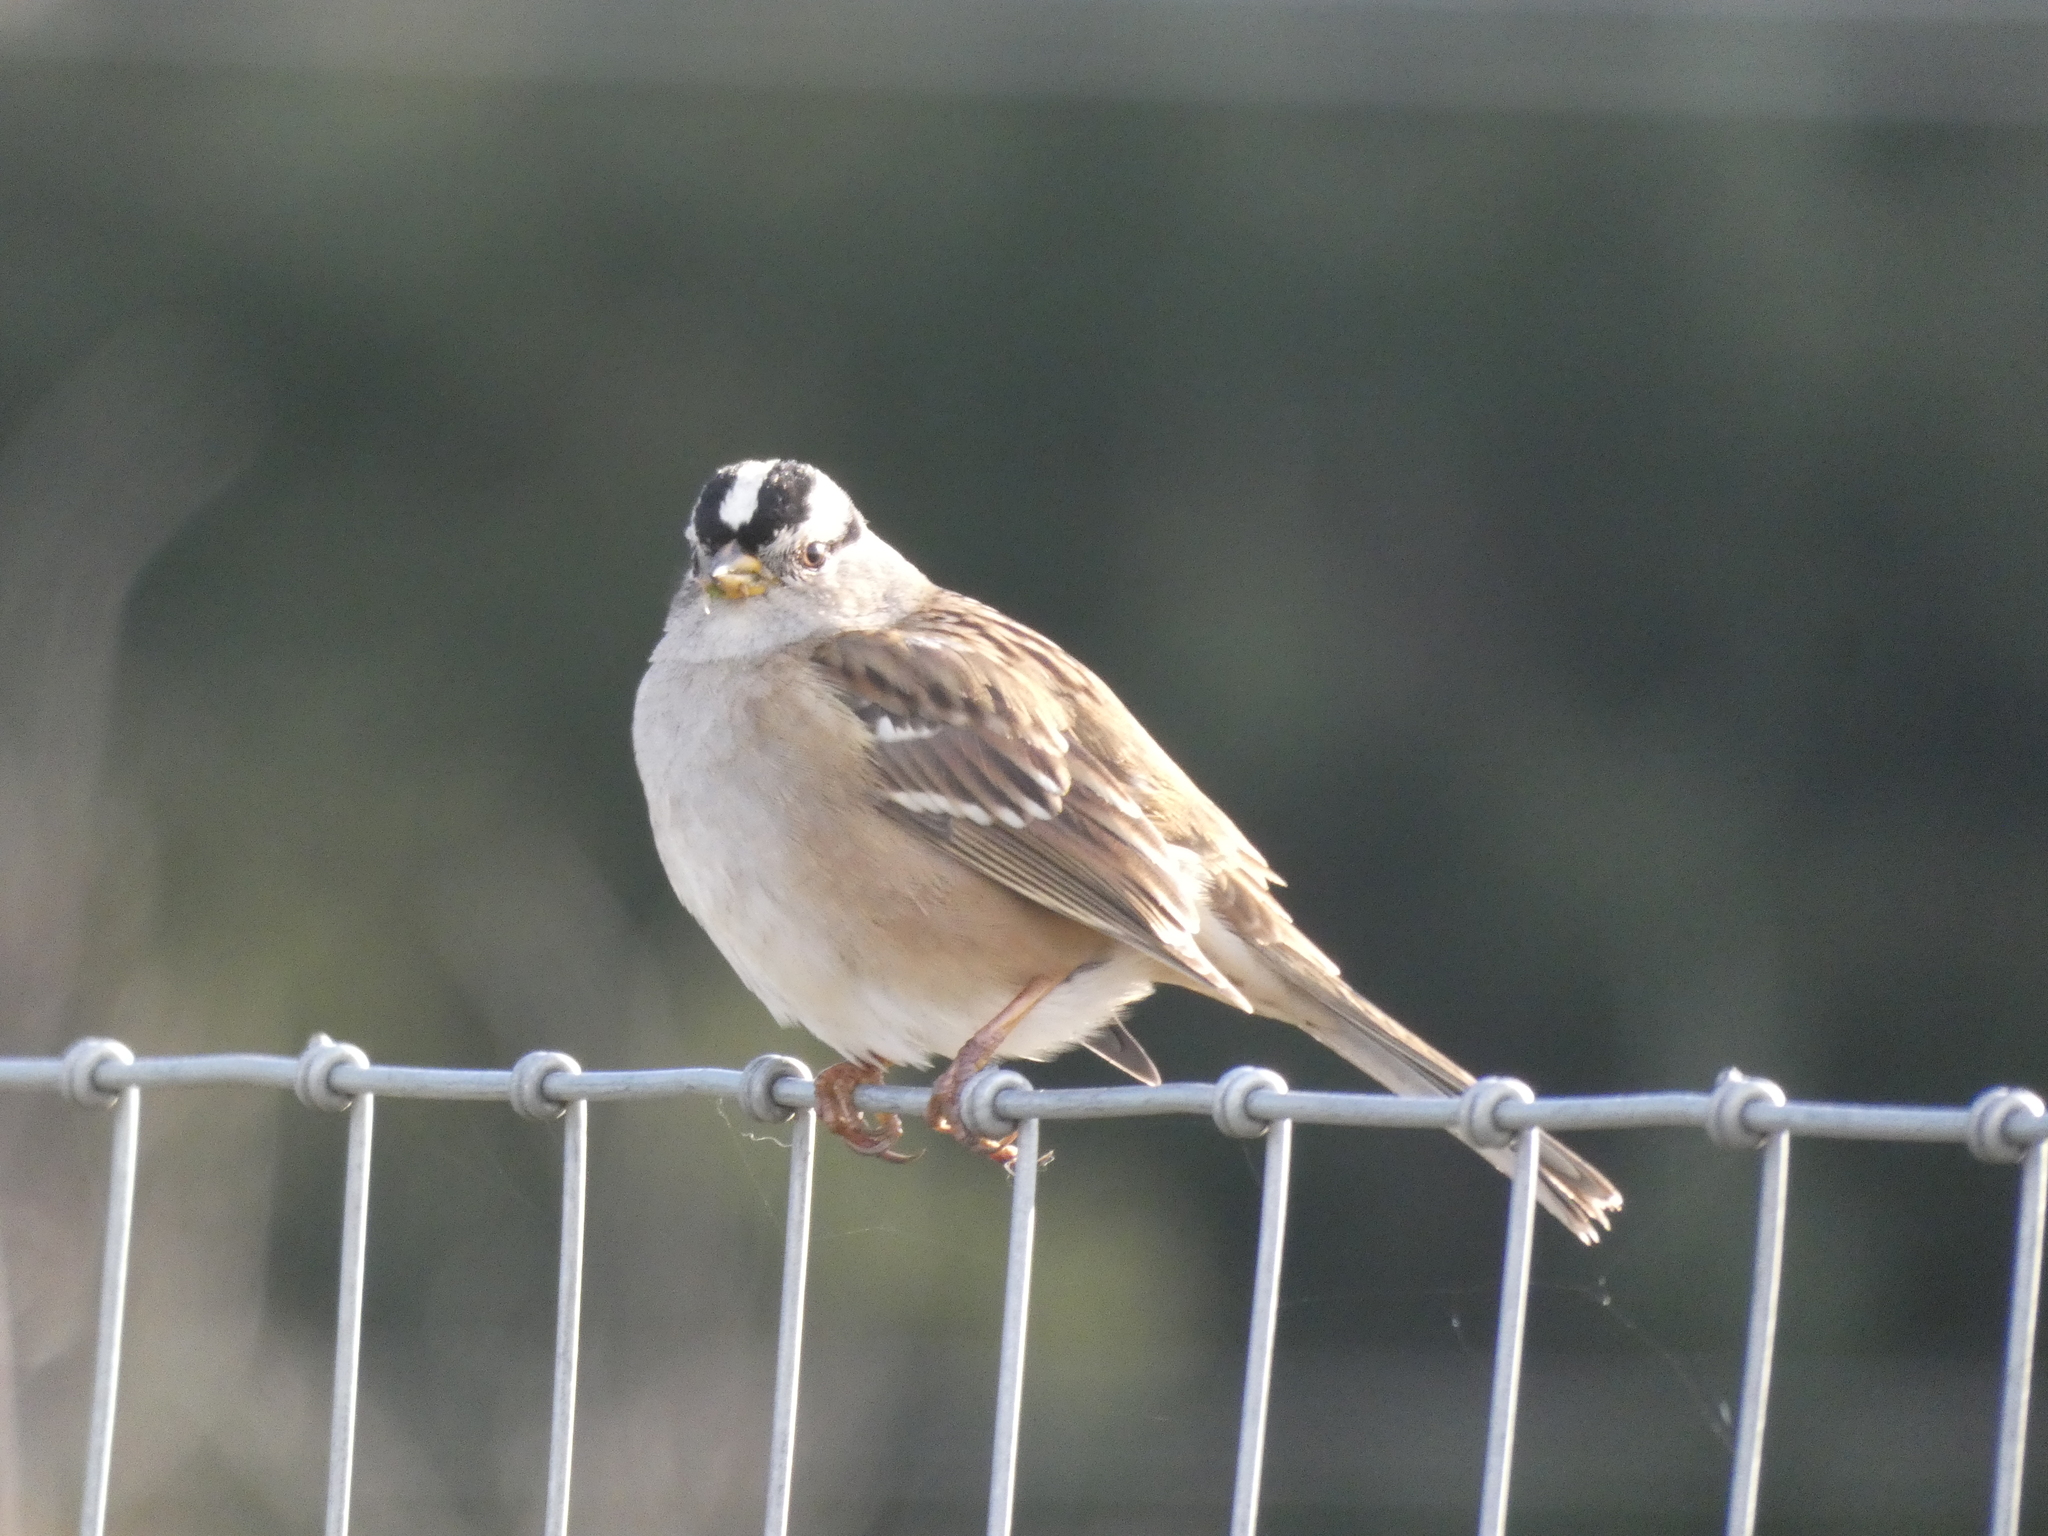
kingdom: Animalia
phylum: Chordata
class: Aves
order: Passeriformes
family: Passerellidae
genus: Zonotrichia
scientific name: Zonotrichia leucophrys
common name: White-crowned sparrow
